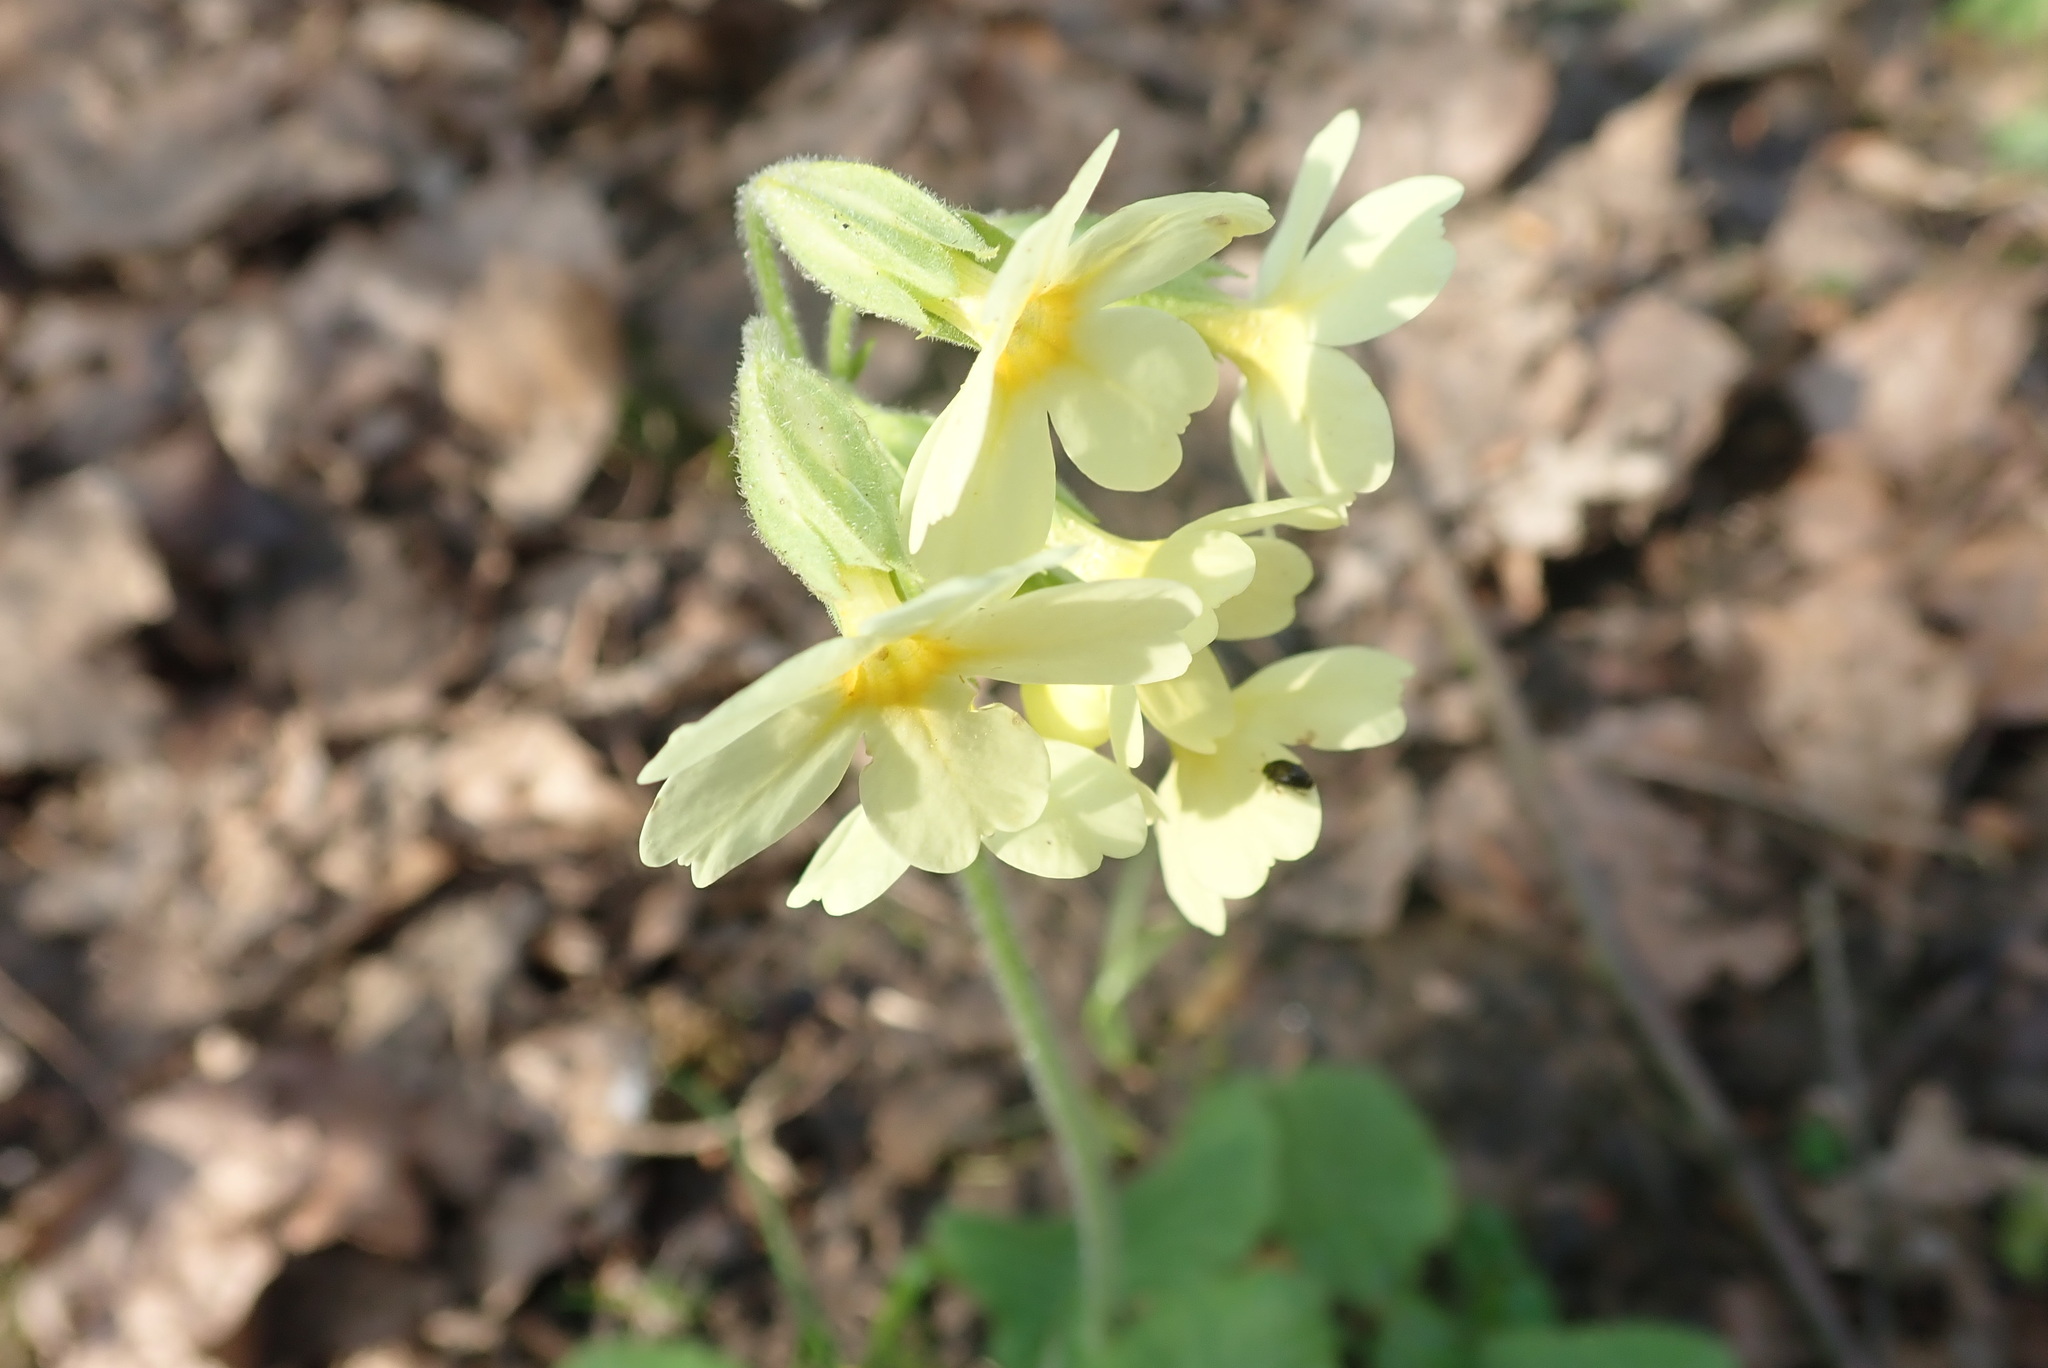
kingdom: Plantae
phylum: Tracheophyta
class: Magnoliopsida
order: Ericales
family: Primulaceae
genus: Primula
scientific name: Primula elatior
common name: Oxlip
